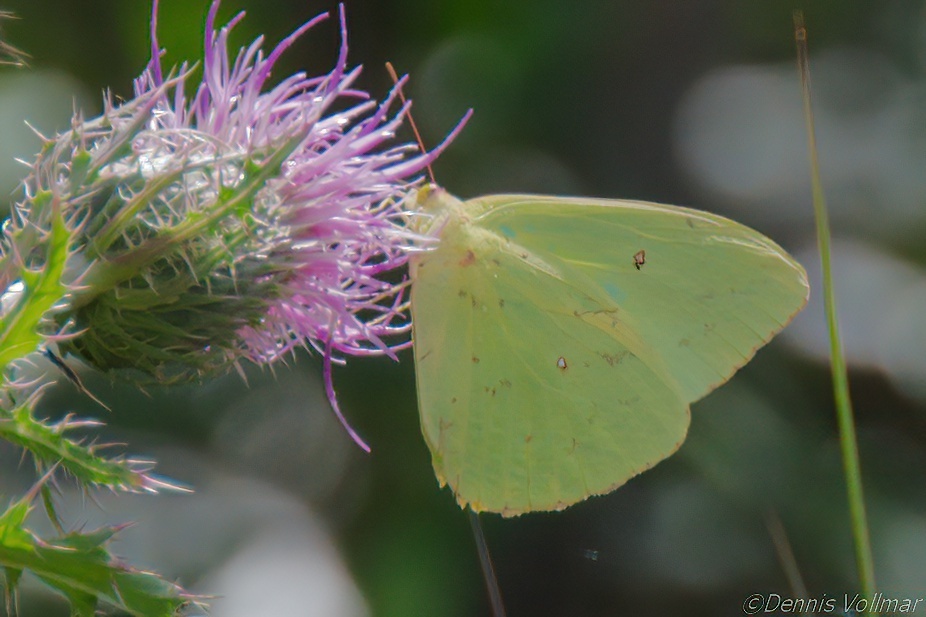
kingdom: Animalia
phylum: Arthropoda
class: Insecta
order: Lepidoptera
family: Pieridae
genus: Phoebis
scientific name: Phoebis sennae
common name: Cloudless sulphur
